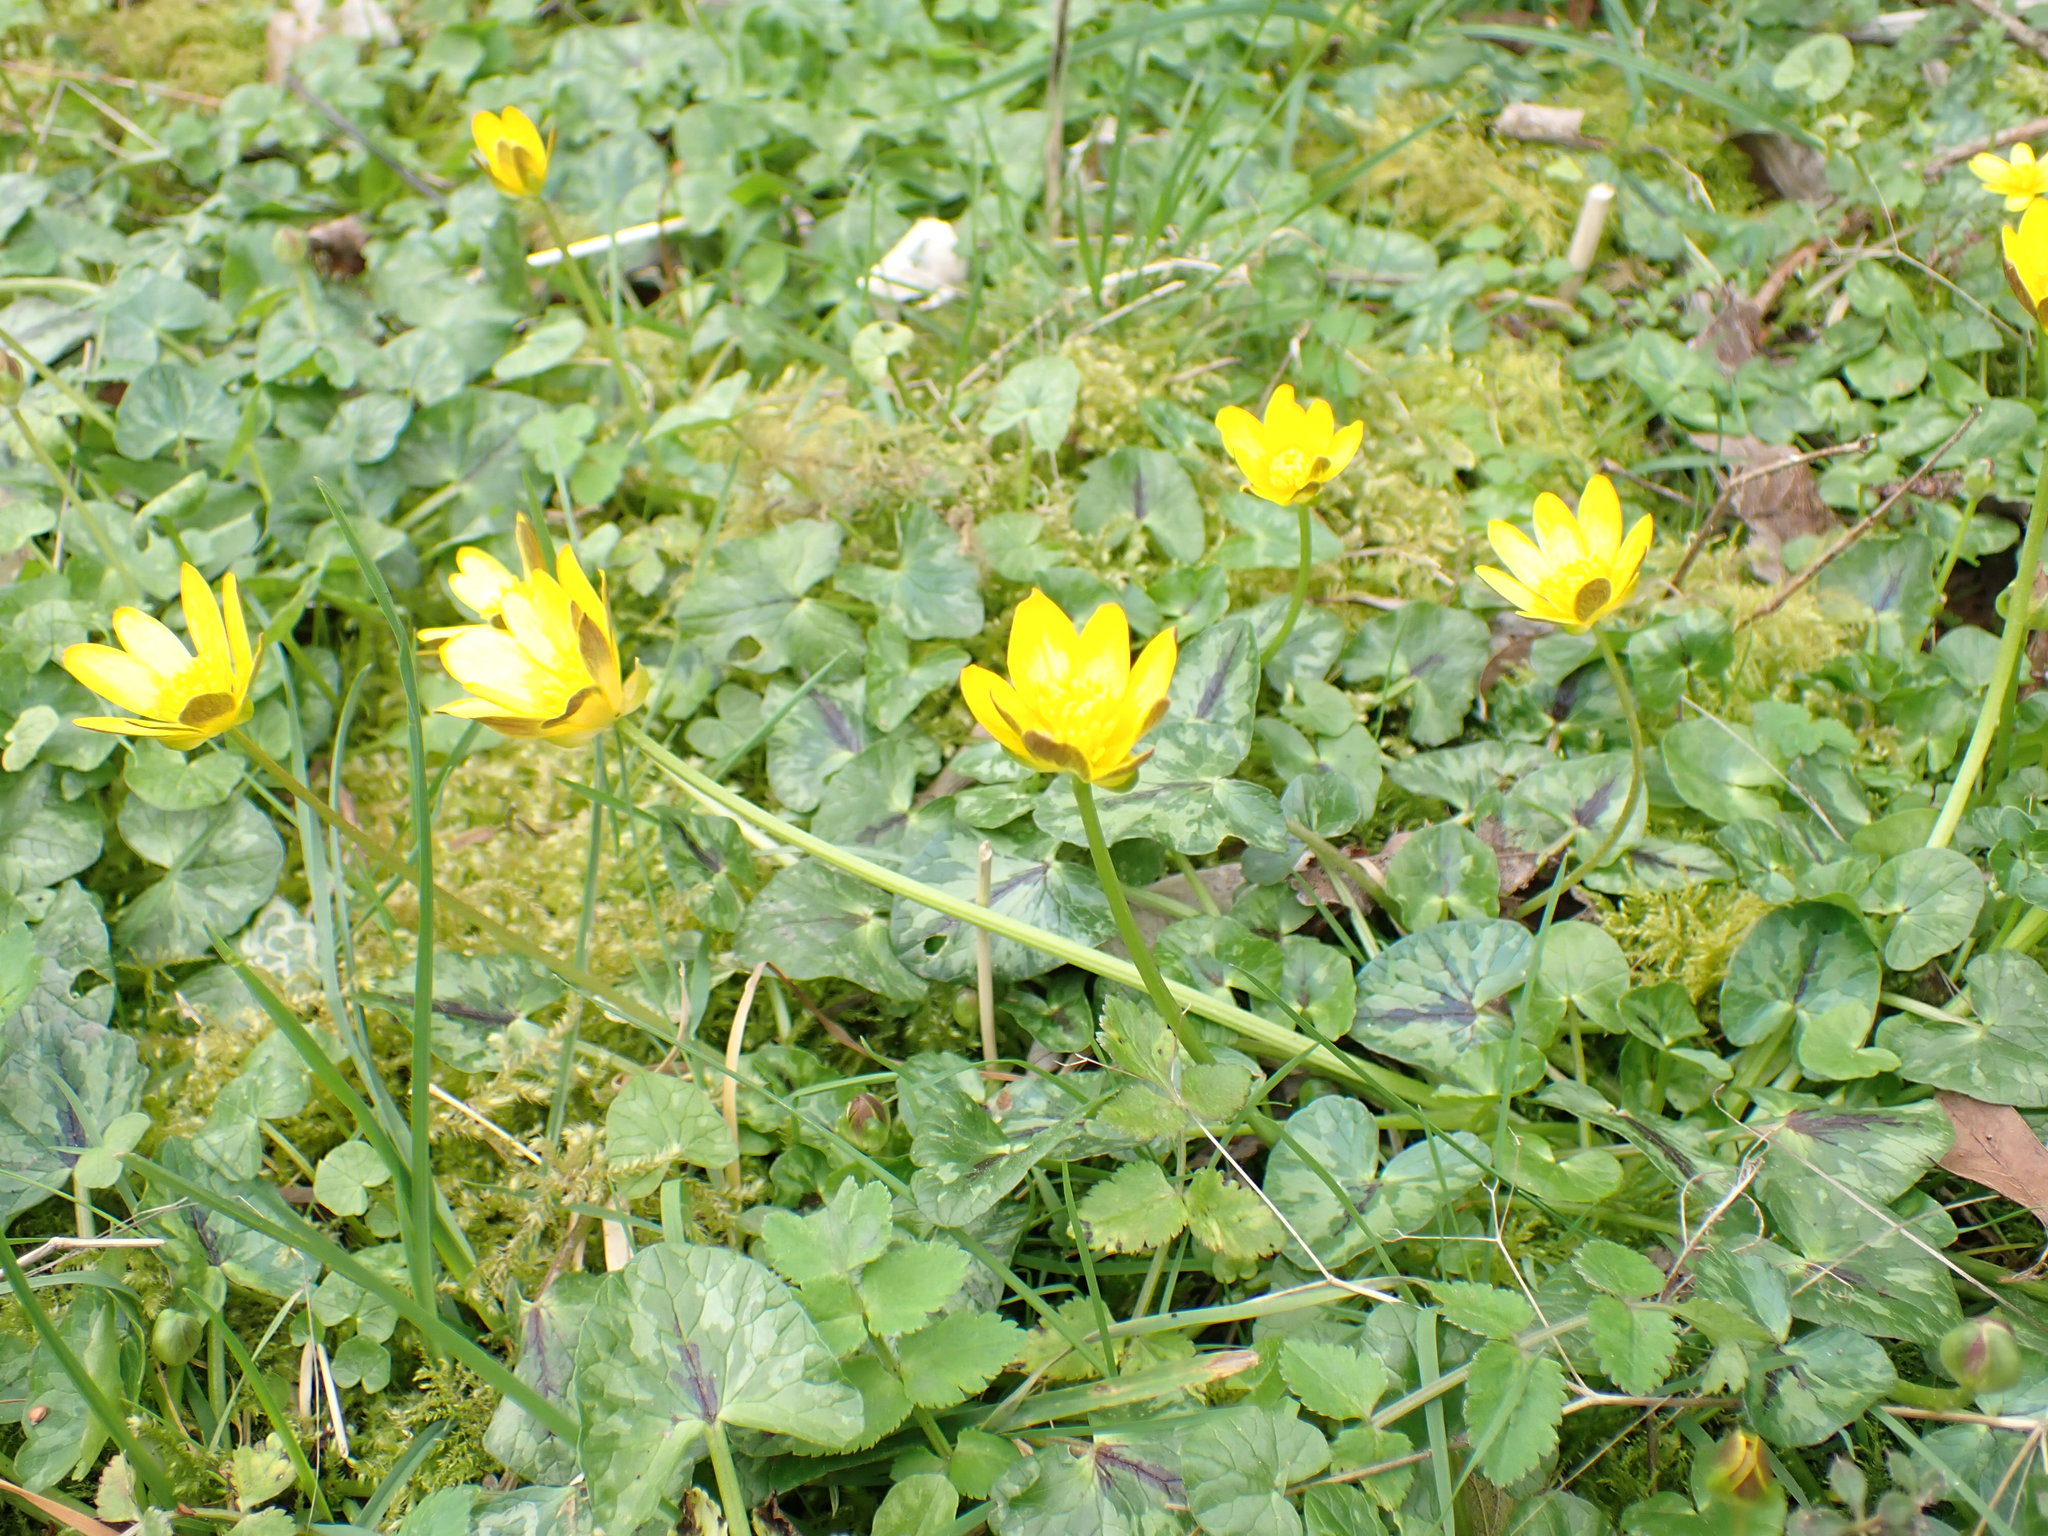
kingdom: Plantae
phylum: Tracheophyta
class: Magnoliopsida
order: Ranunculales
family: Ranunculaceae
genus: Ficaria
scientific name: Ficaria verna
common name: Lesser celandine
